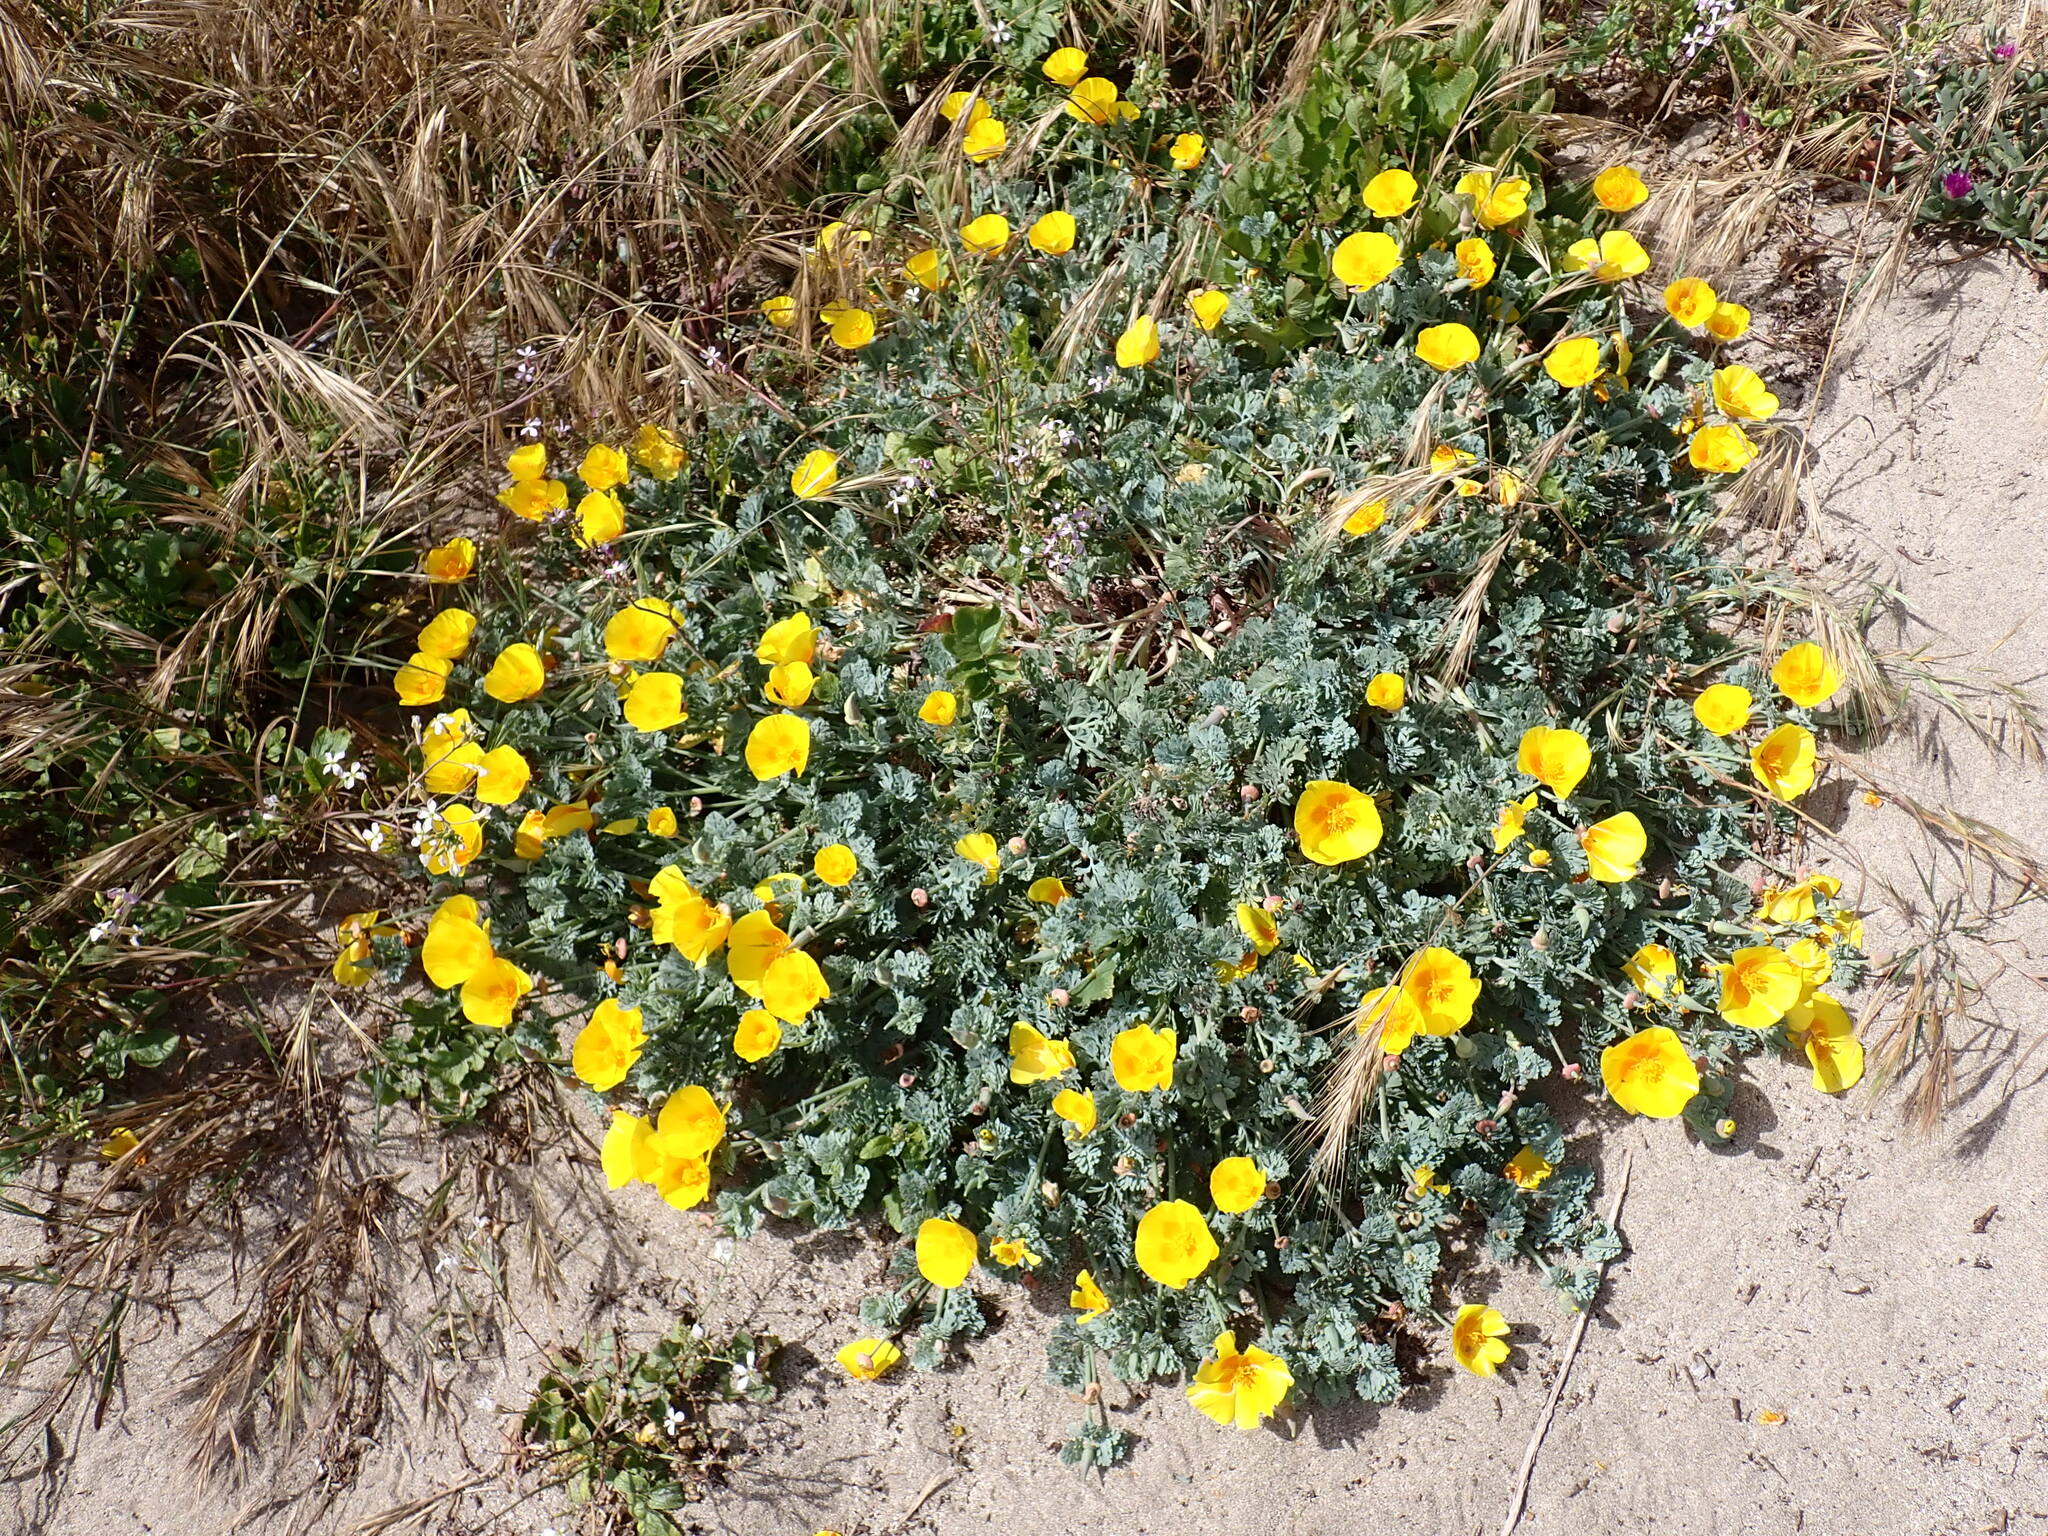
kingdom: Plantae
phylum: Tracheophyta
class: Magnoliopsida
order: Ranunculales
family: Papaveraceae
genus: Eschscholzia
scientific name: Eschscholzia californica
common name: California poppy
